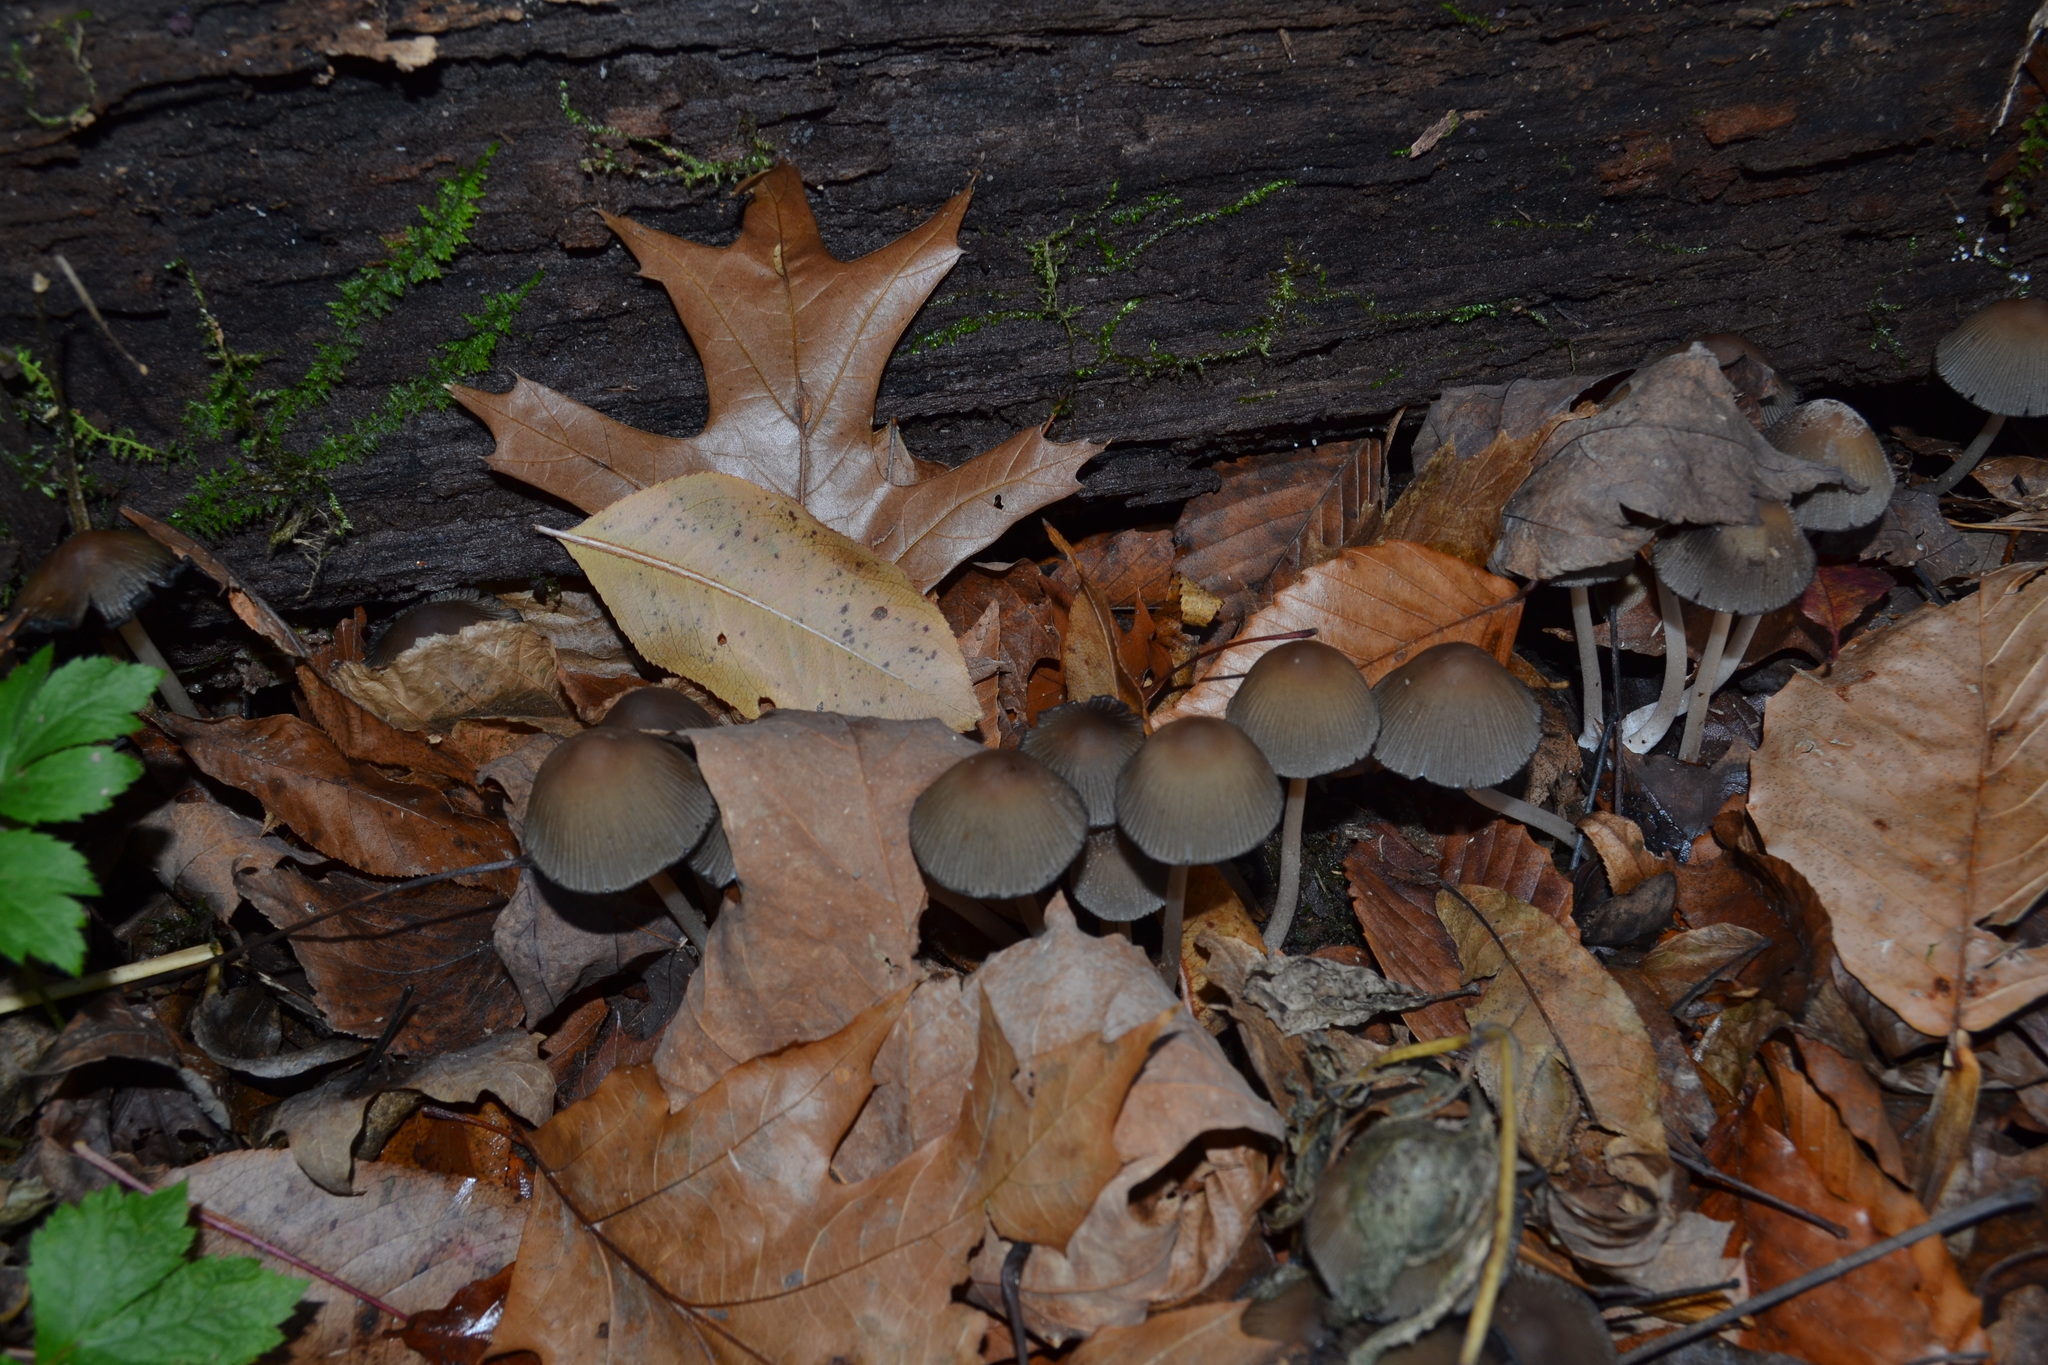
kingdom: Fungi
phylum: Basidiomycota
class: Agaricomycetes
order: Agaricales
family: Psathyrellaceae
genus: Coprinellus
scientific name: Coprinellus micaceus
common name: Glistening ink-cap
